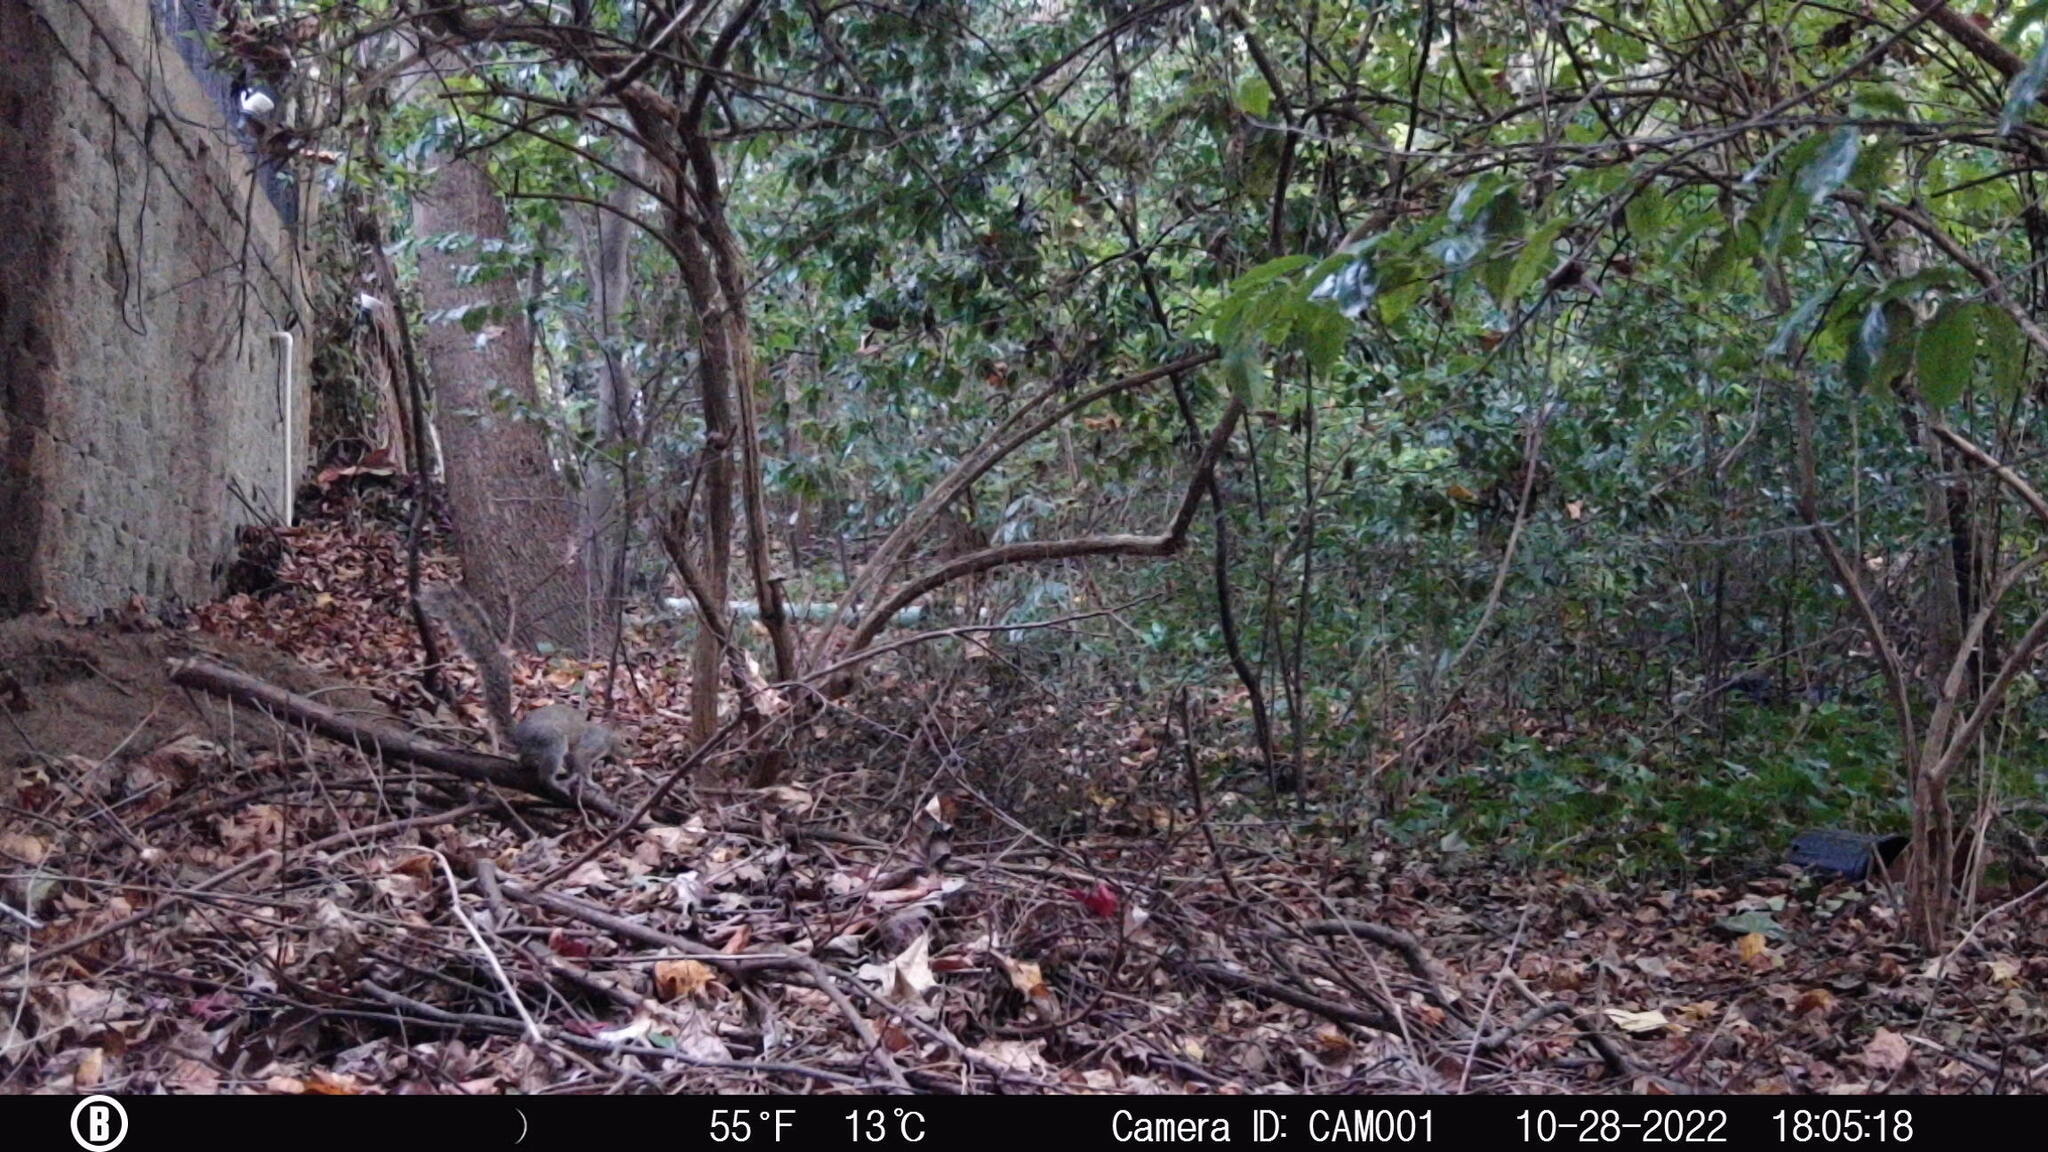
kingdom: Animalia
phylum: Chordata
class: Mammalia
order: Rodentia
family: Sciuridae
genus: Sciurus
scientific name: Sciurus carolinensis
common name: Eastern gray squirrel
